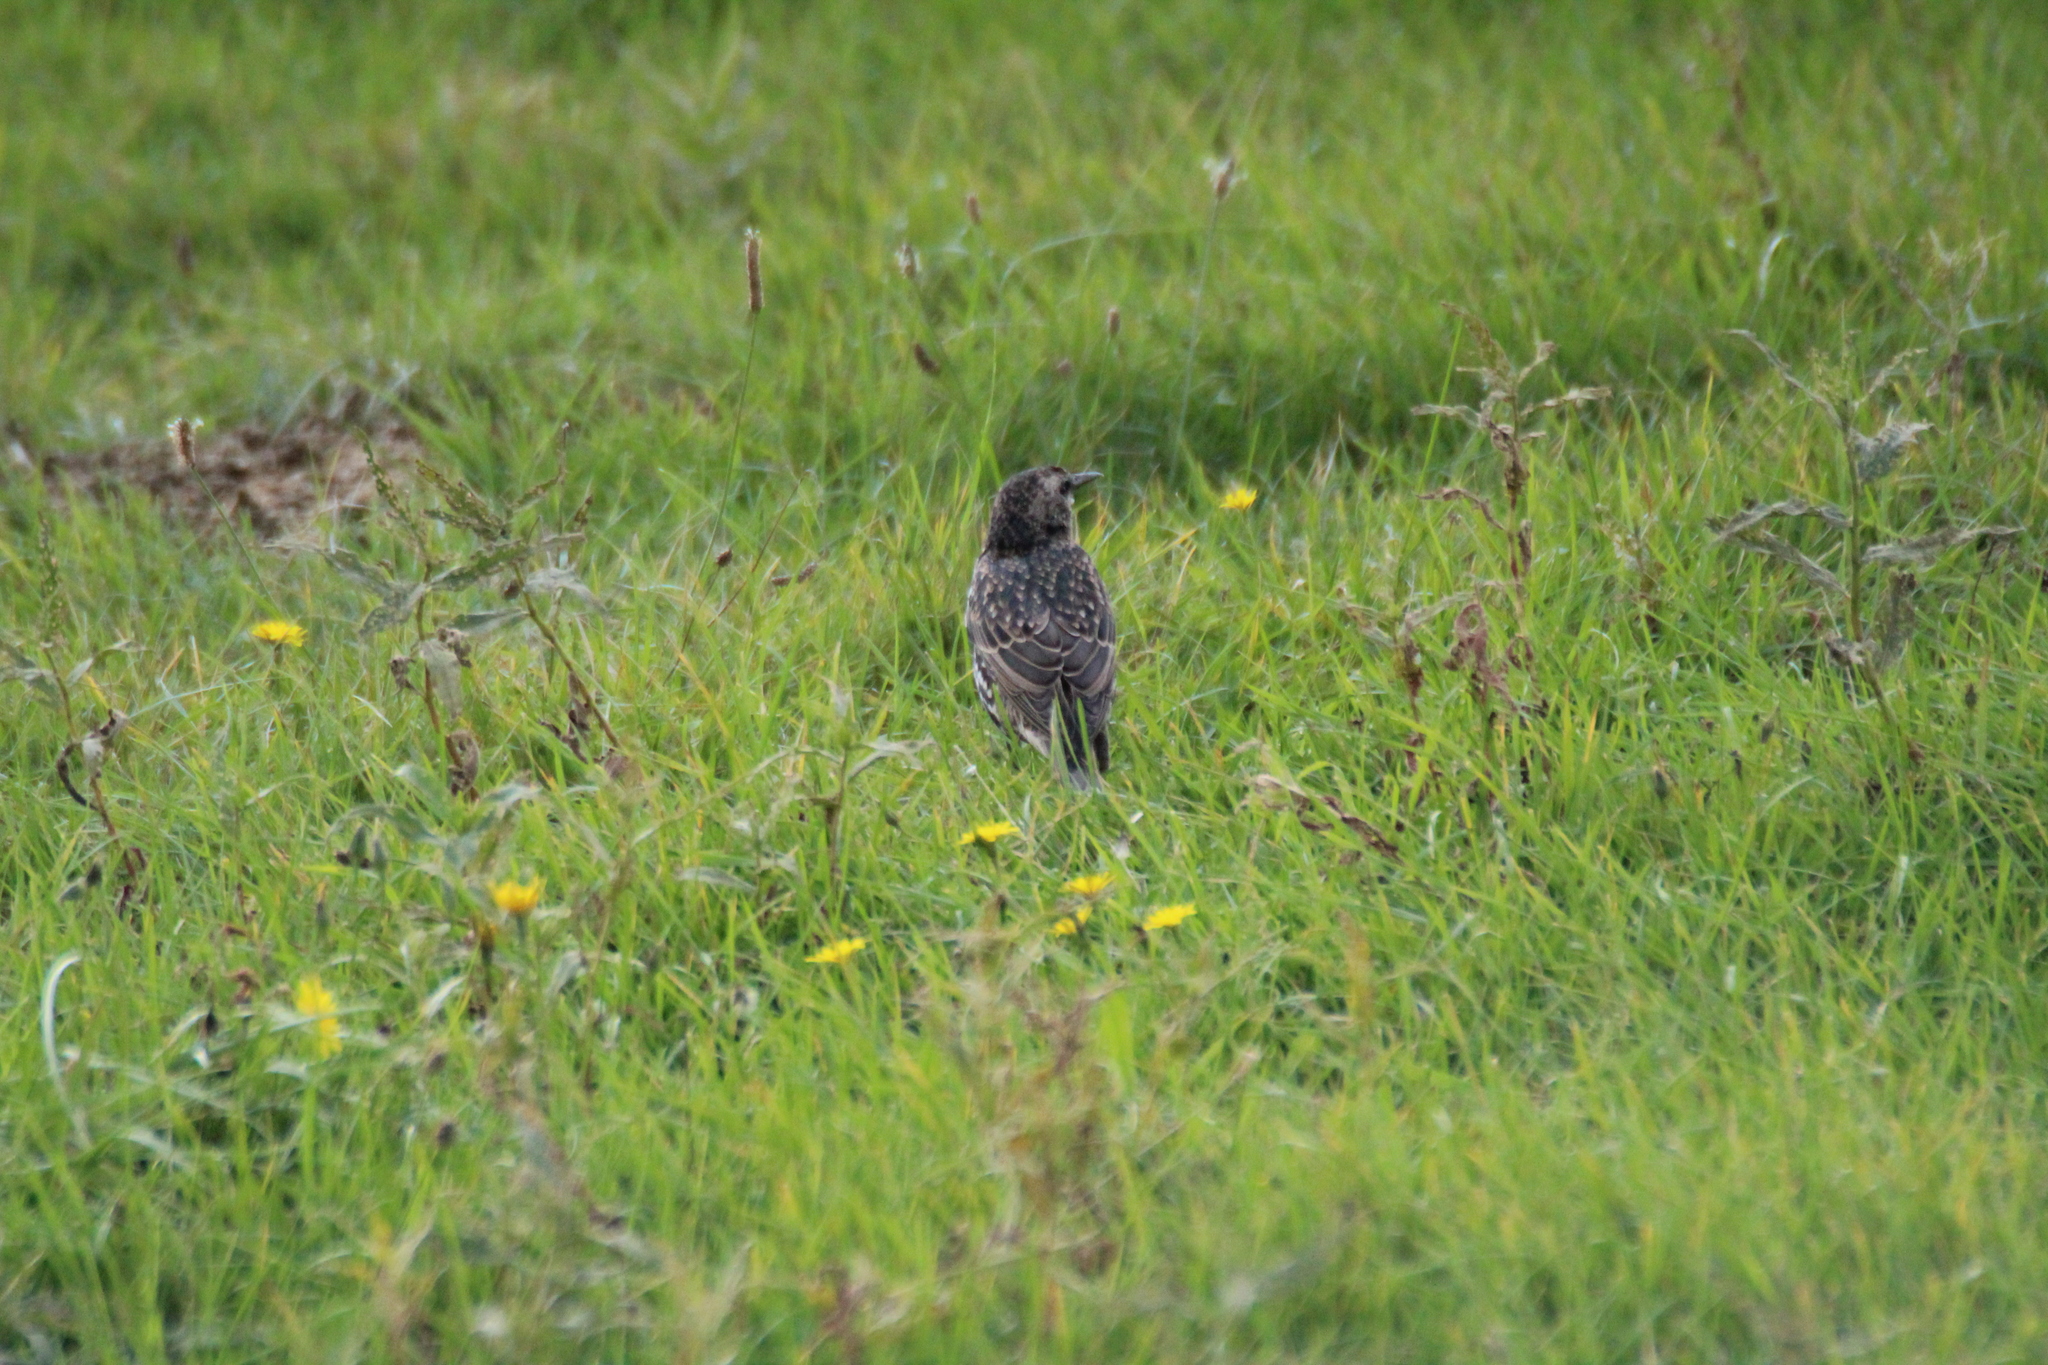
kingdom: Animalia
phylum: Chordata
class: Aves
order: Passeriformes
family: Sturnidae
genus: Sturnus
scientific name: Sturnus vulgaris
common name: Common starling
